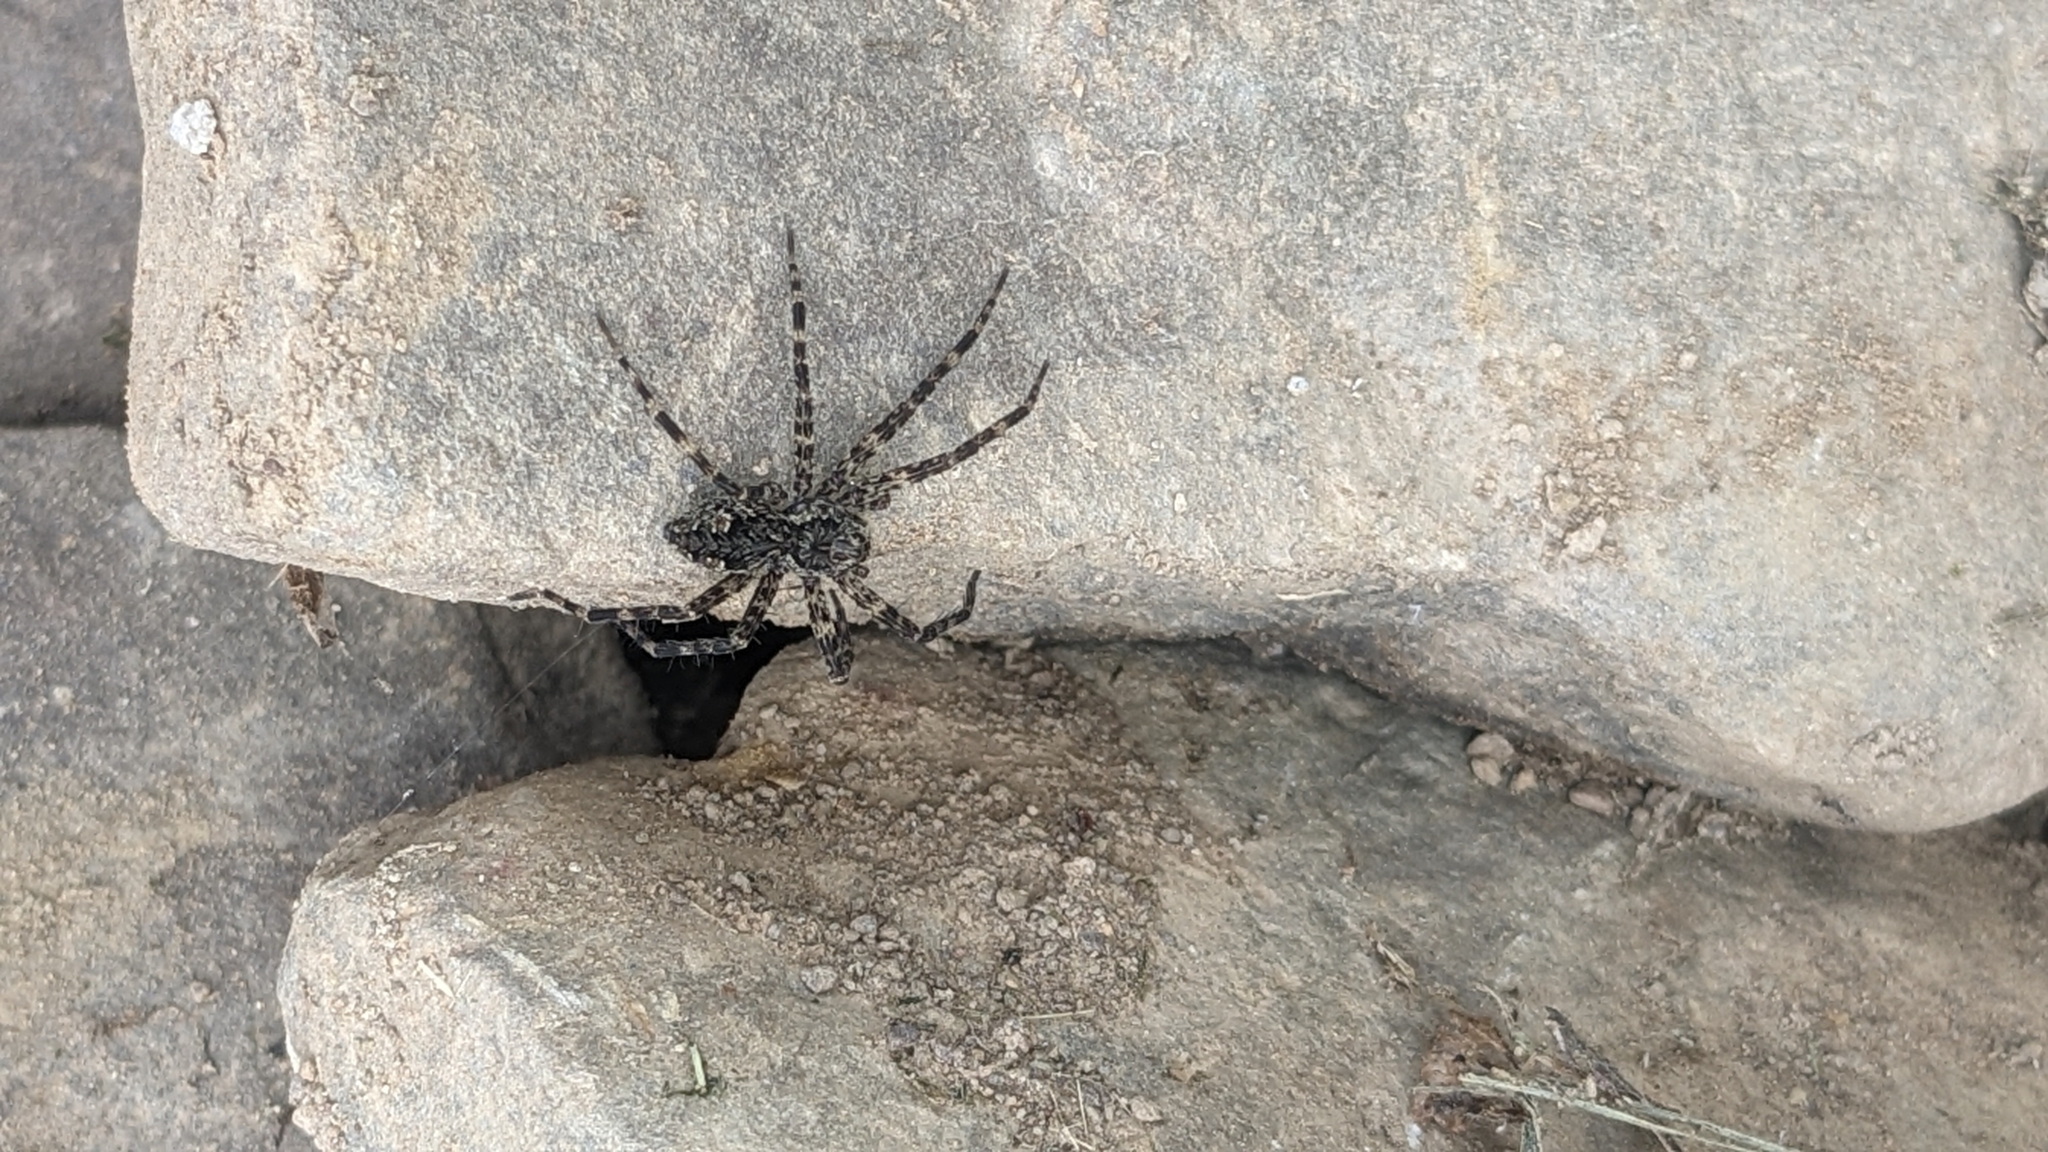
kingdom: Animalia
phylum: Arthropoda
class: Arachnida
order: Araneae
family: Pisauridae
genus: Dolomedes
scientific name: Dolomedes tenebrosus
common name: Dark fishing spider
